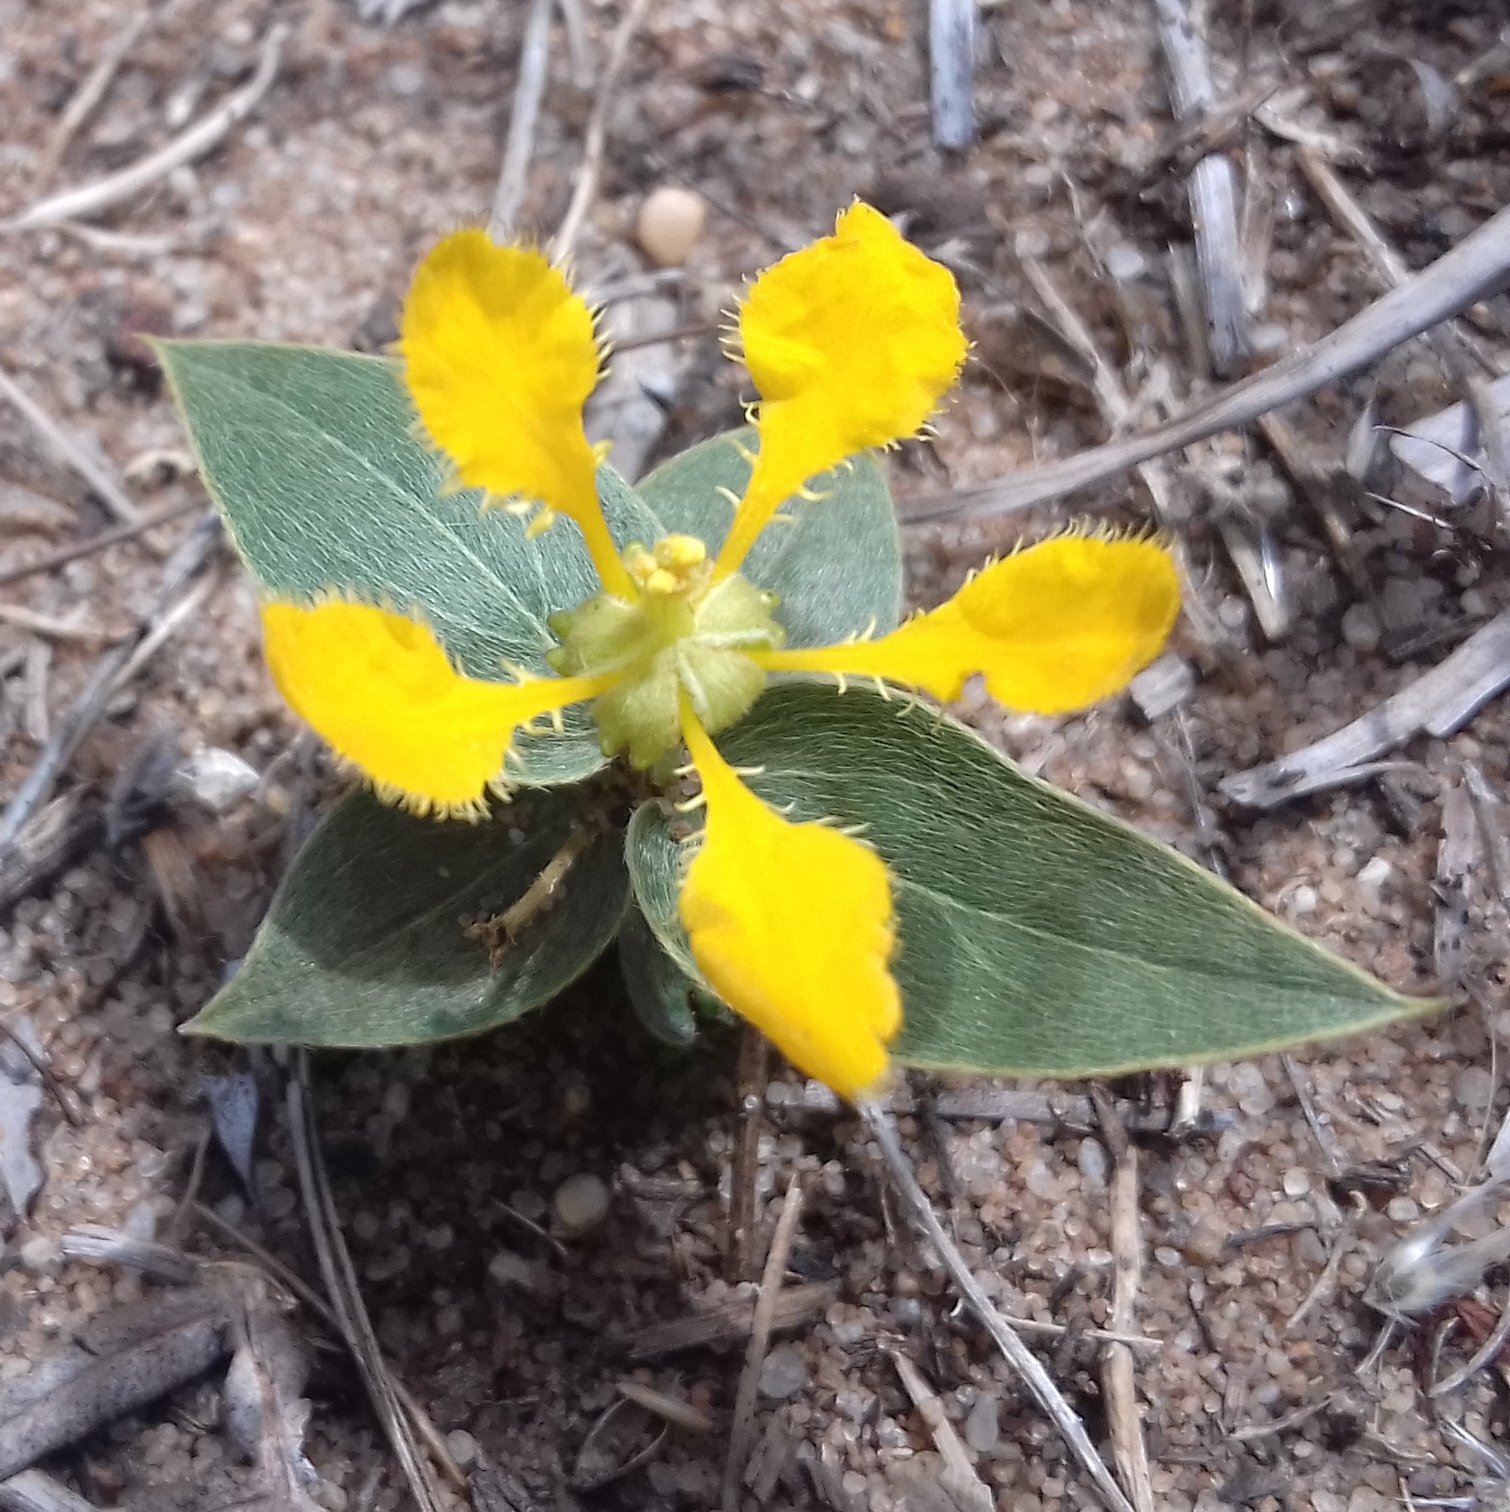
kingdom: Plantae
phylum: Tracheophyta
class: Magnoliopsida
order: Malpighiales
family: Malpighiaceae
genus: Aspicarpa
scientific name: Aspicarpa pulchella
